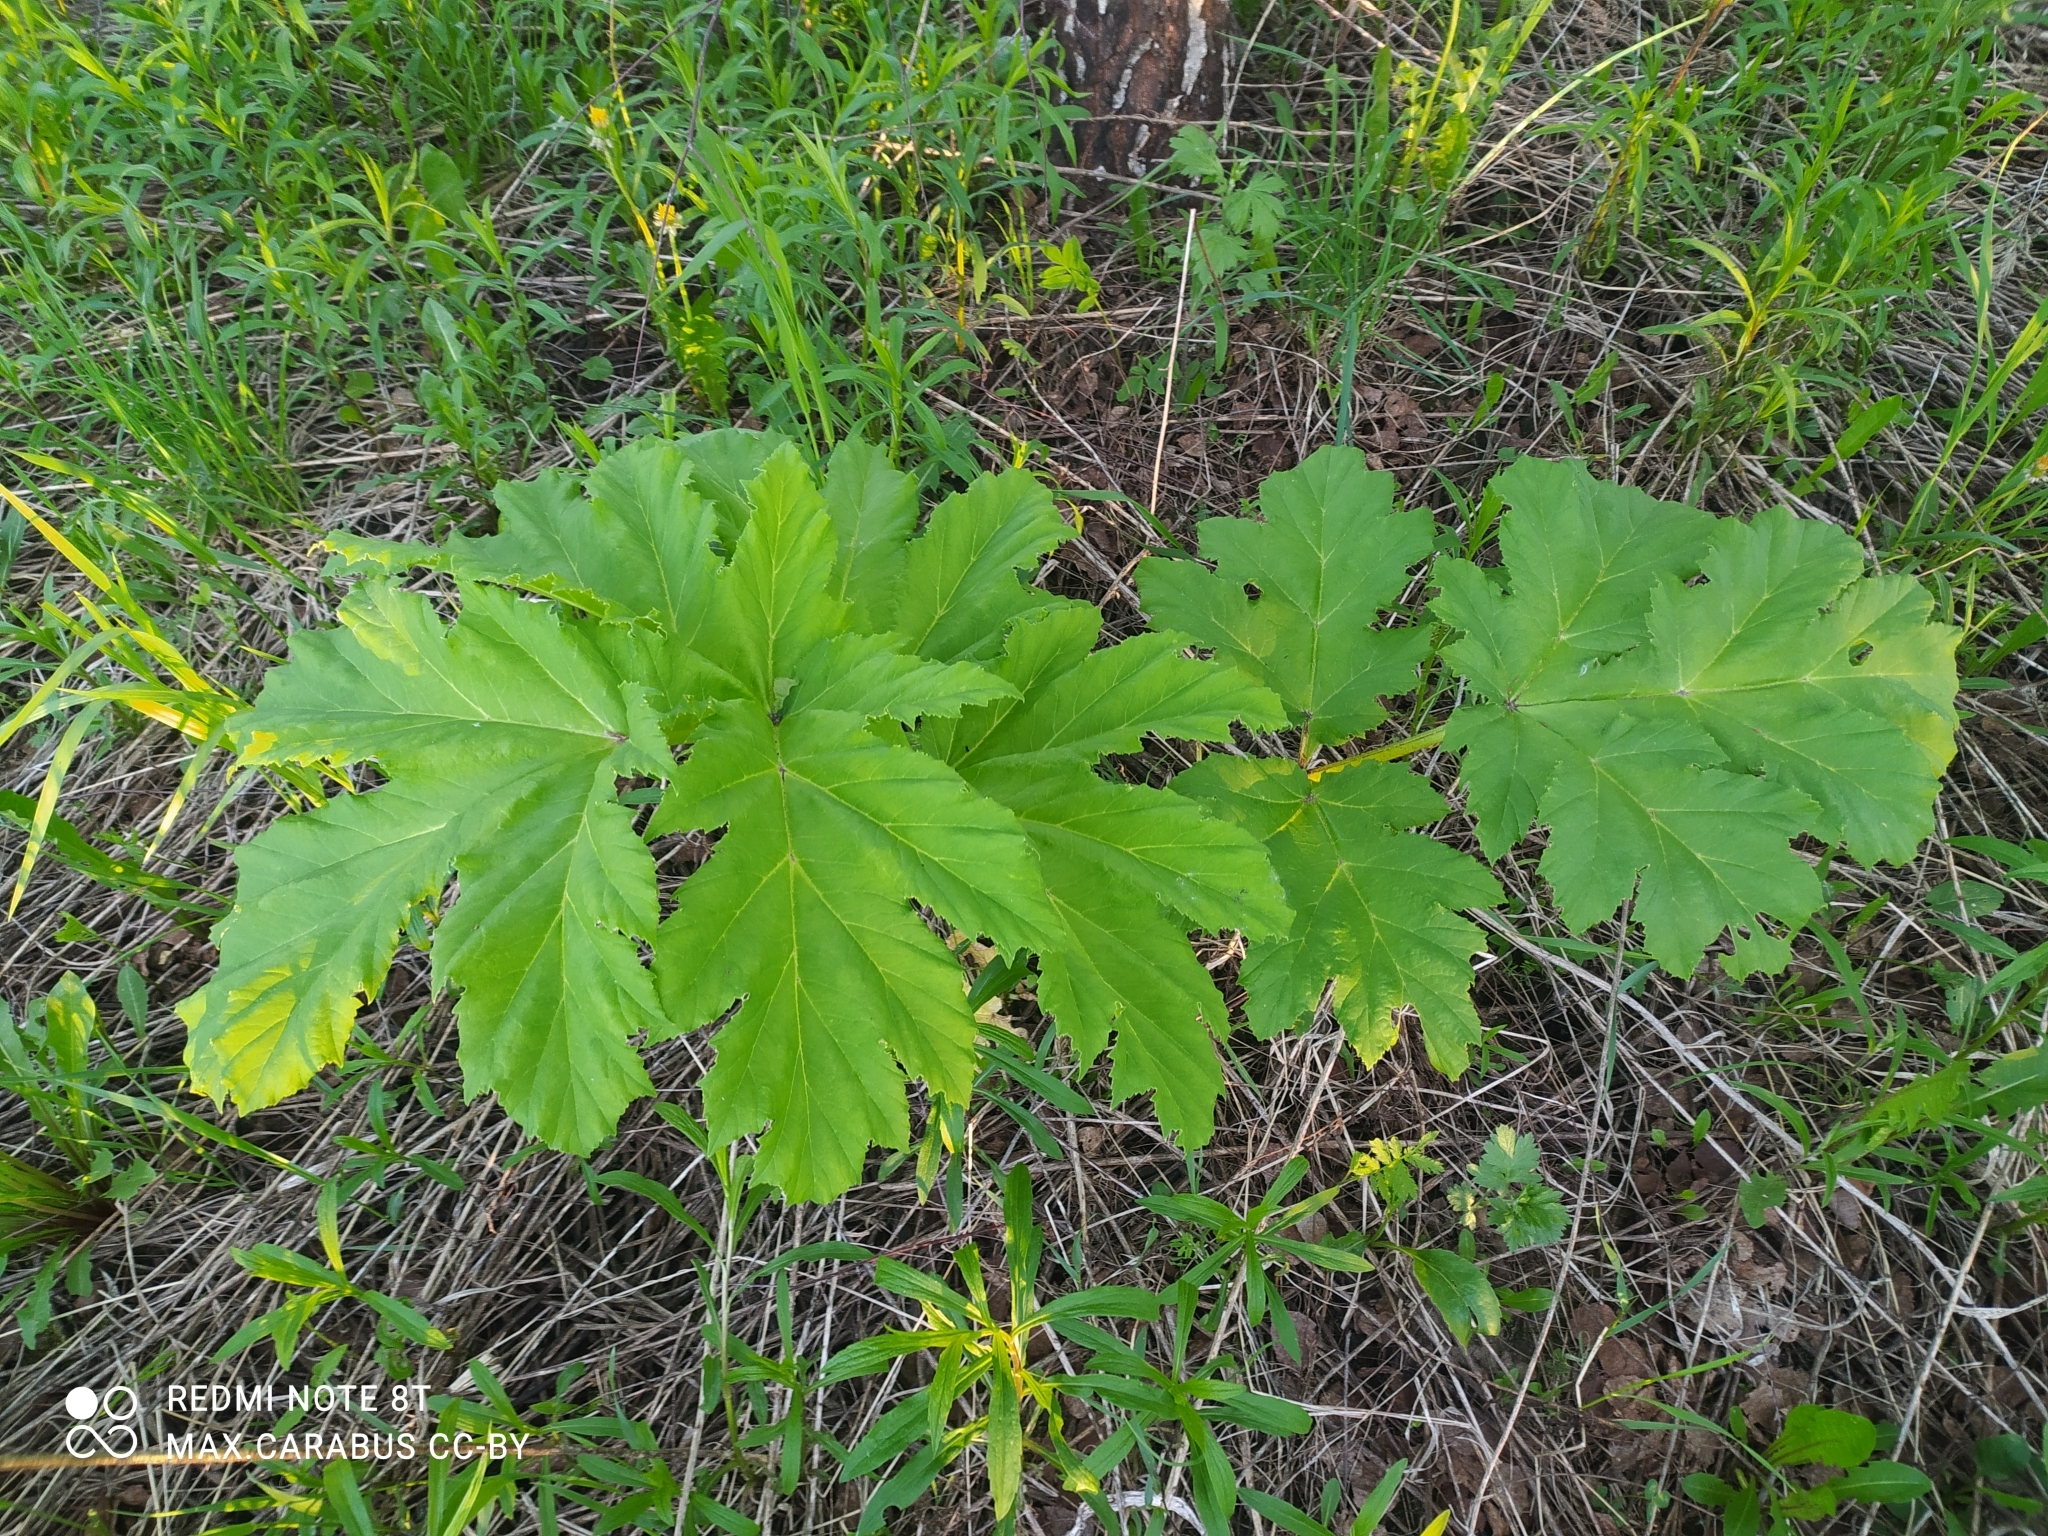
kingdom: Plantae
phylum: Tracheophyta
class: Magnoliopsida
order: Apiales
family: Apiaceae
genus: Heracleum
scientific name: Heracleum sosnowskyi
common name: Sosnowsky's hogweed
